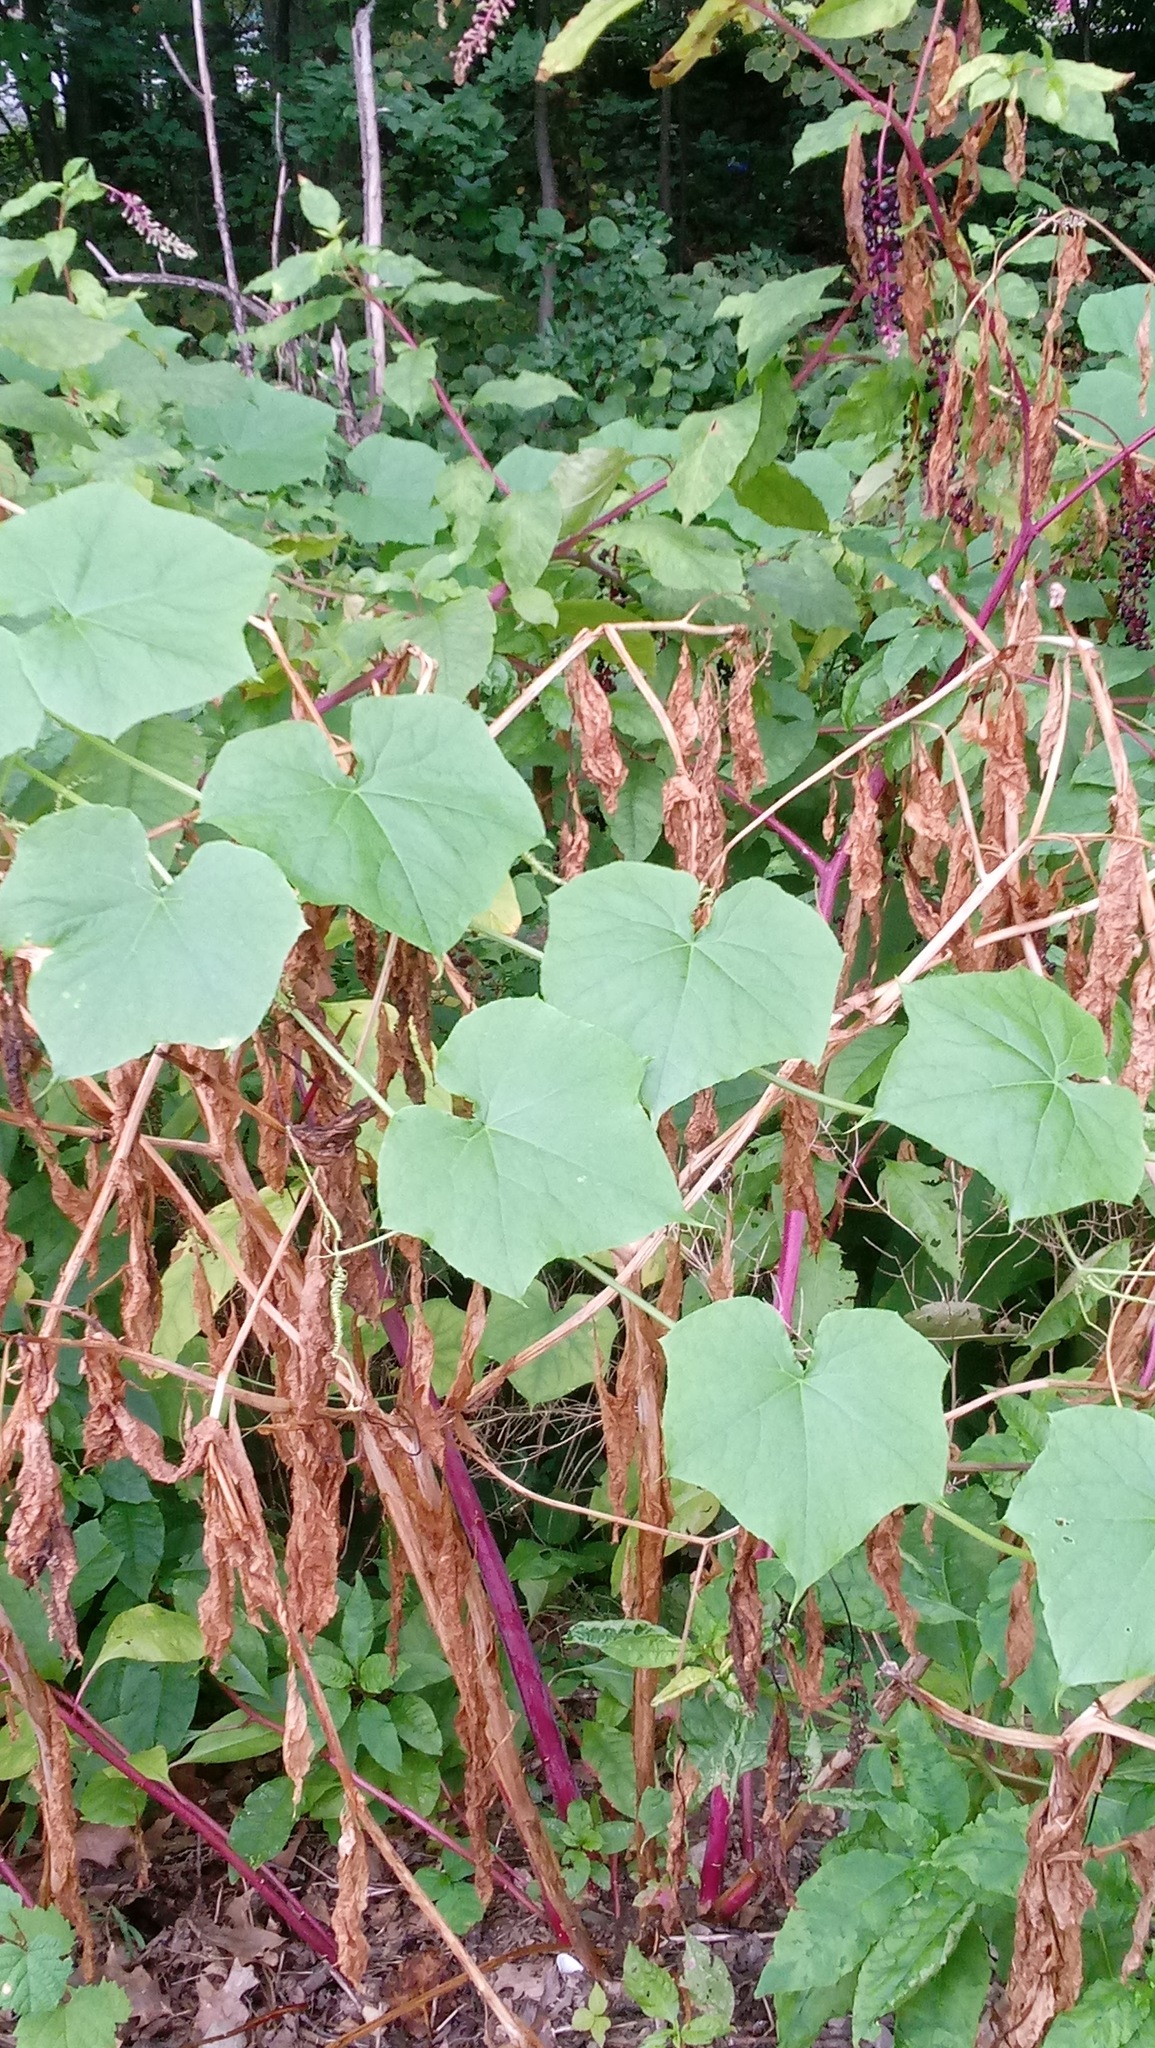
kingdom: Plantae
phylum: Tracheophyta
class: Magnoliopsida
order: Cucurbitales
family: Cucurbitaceae
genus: Sicyos
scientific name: Sicyos angulatus
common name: Angled burr cucumber
